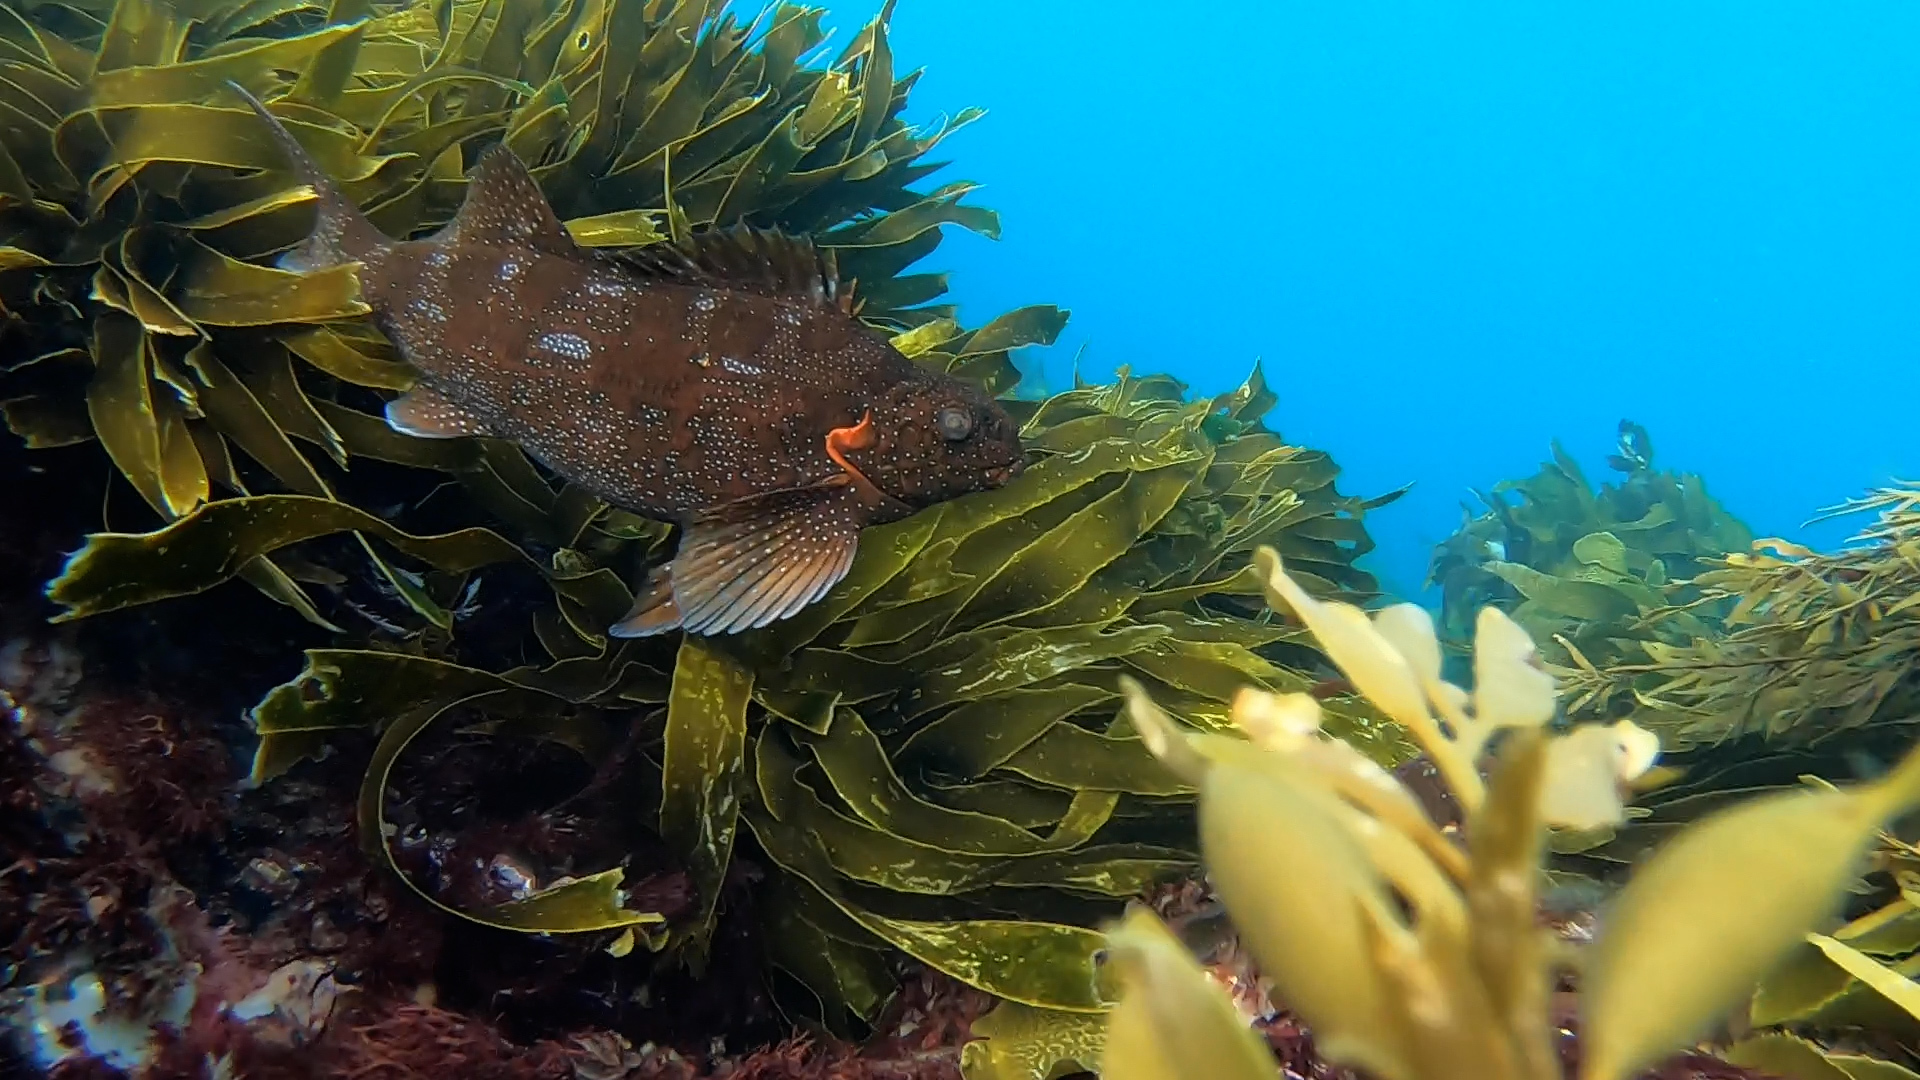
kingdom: Animalia
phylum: Chordata
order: Perciformes
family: Aplodactylidae
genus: Aplodactylus
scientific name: Aplodactylus etheridgii
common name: Notchheaded marblefish
